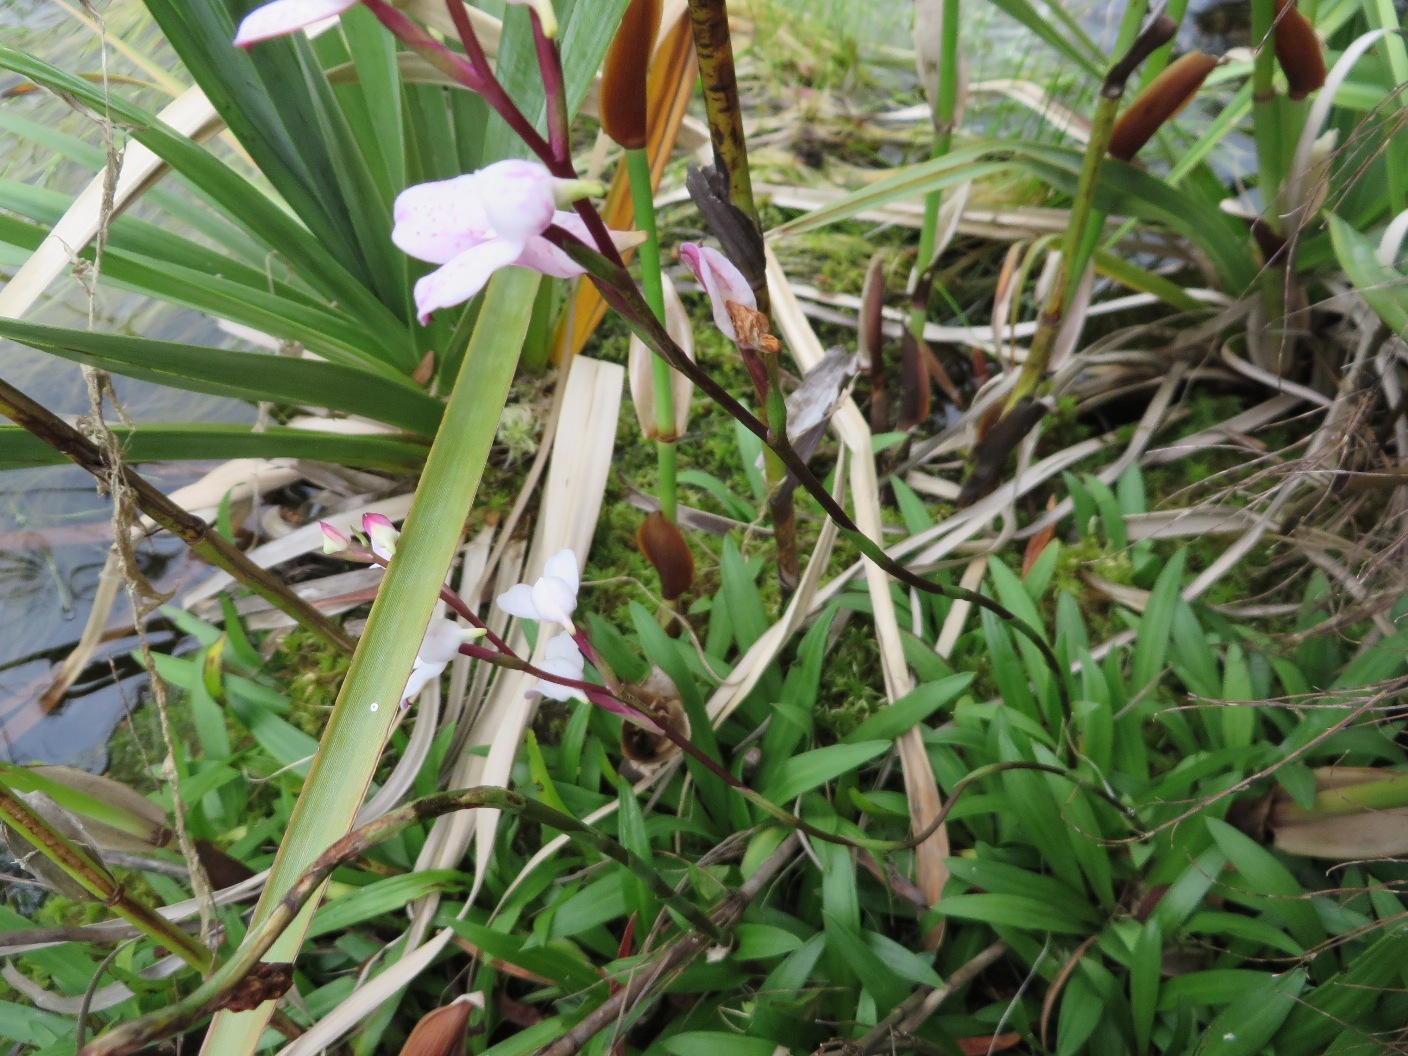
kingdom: Plantae
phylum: Tracheophyta
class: Liliopsida
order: Asparagales
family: Orchidaceae
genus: Disa
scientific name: Disa tripetaloides
